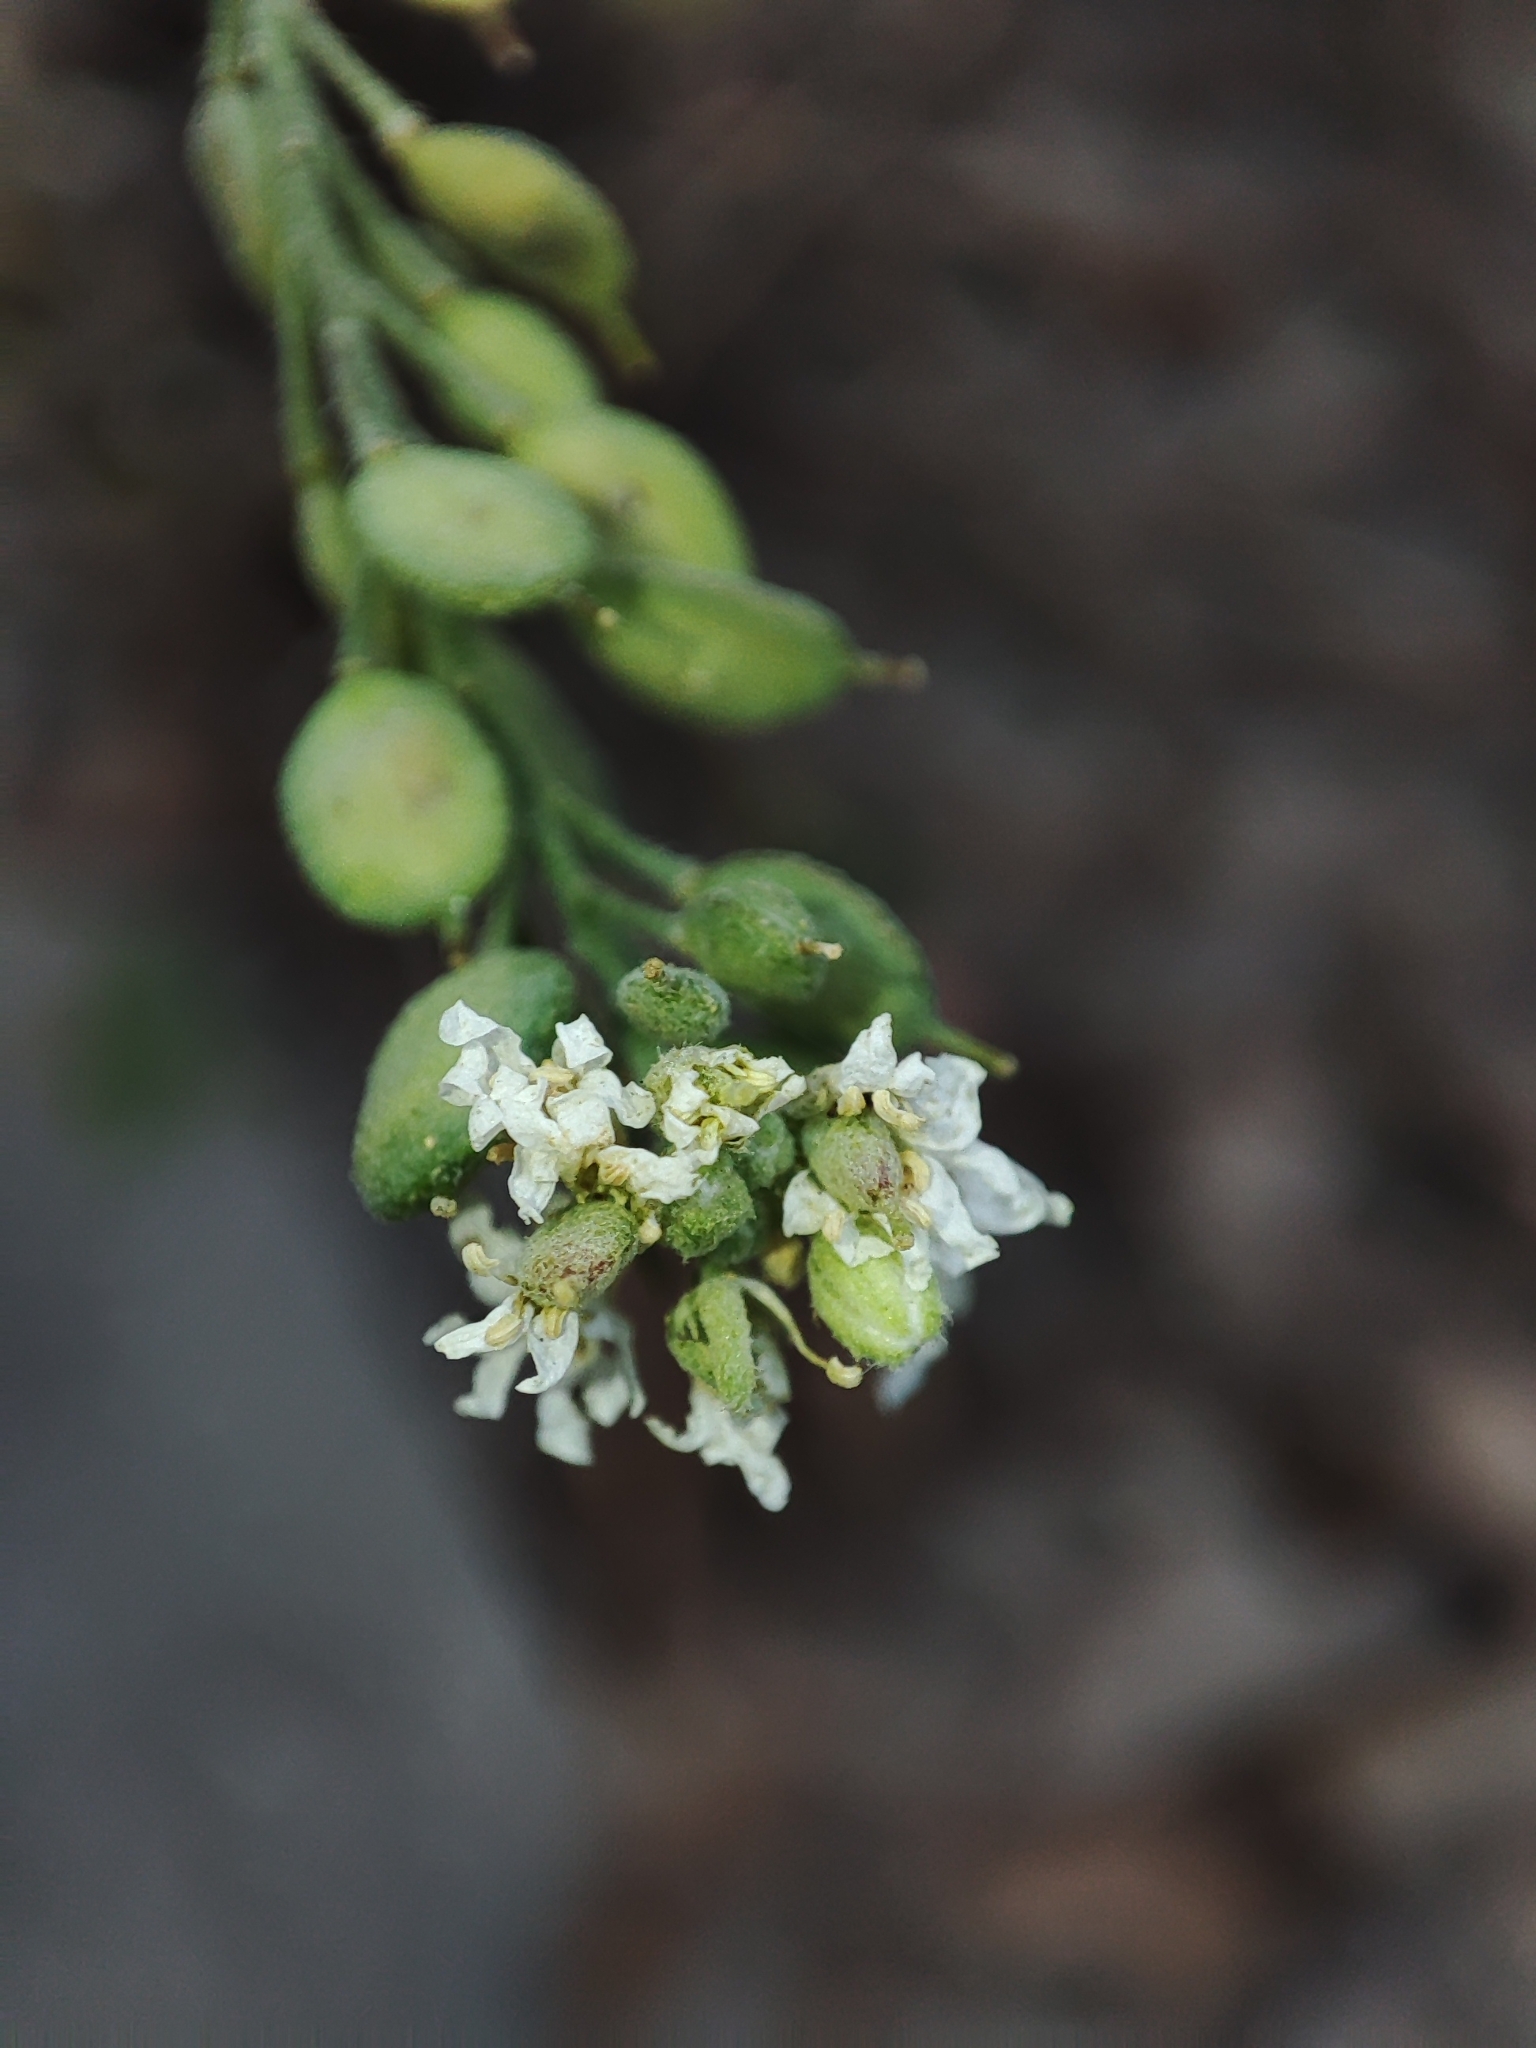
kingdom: Plantae
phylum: Tracheophyta
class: Magnoliopsida
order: Brassicales
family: Brassicaceae
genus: Berteroa
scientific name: Berteroa incana
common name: Hoary alison
